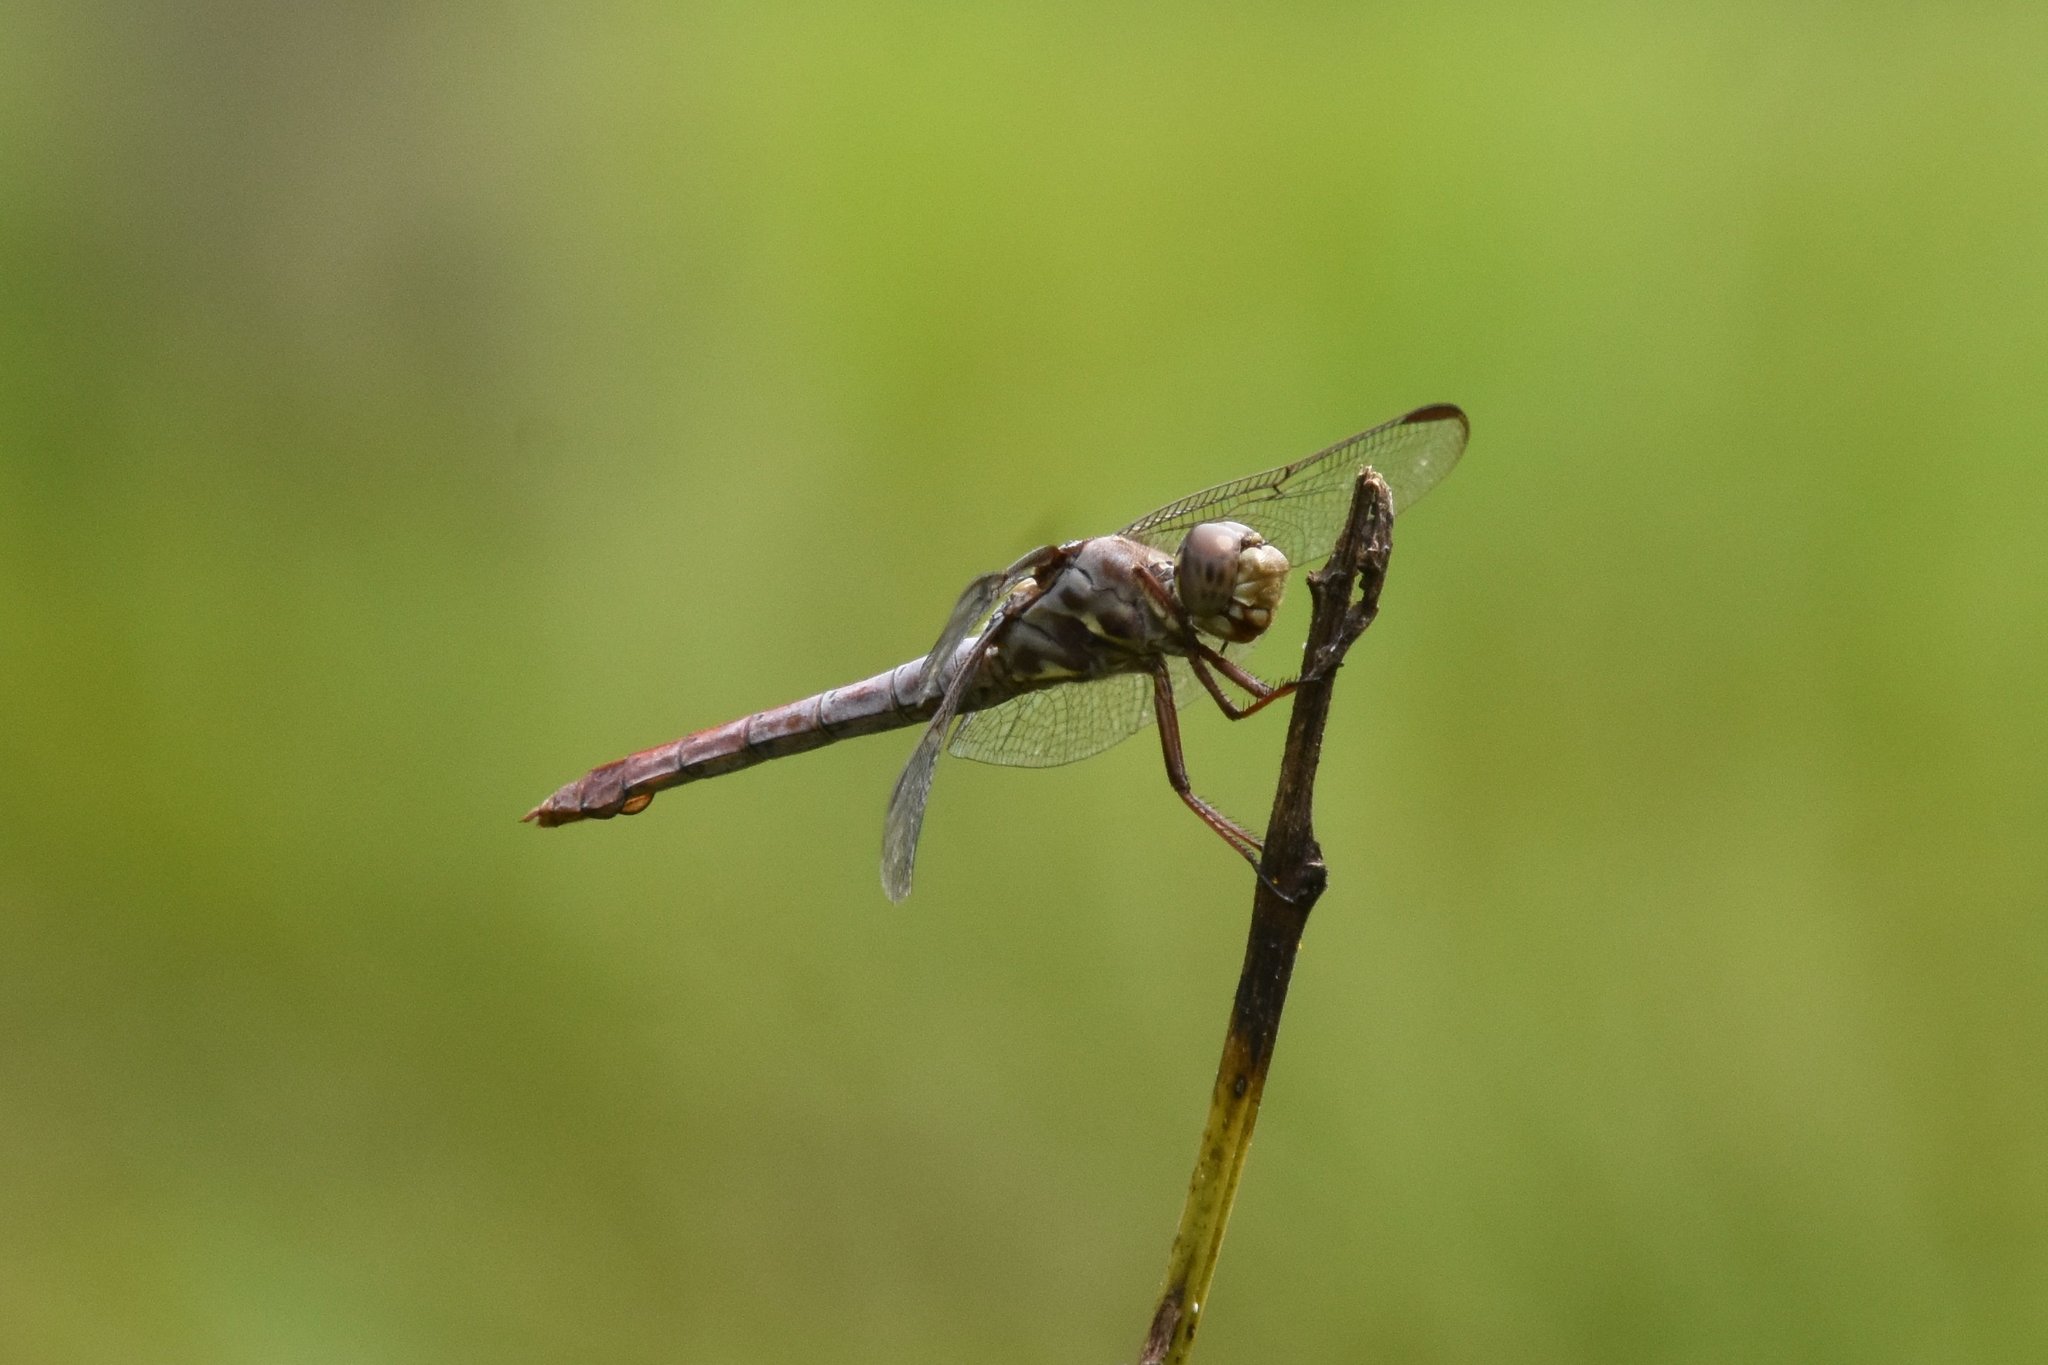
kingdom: Animalia
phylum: Arthropoda
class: Insecta
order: Odonata
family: Libellulidae
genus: Orthemis
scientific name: Orthemis ferruginea
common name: Roseate skimmer
